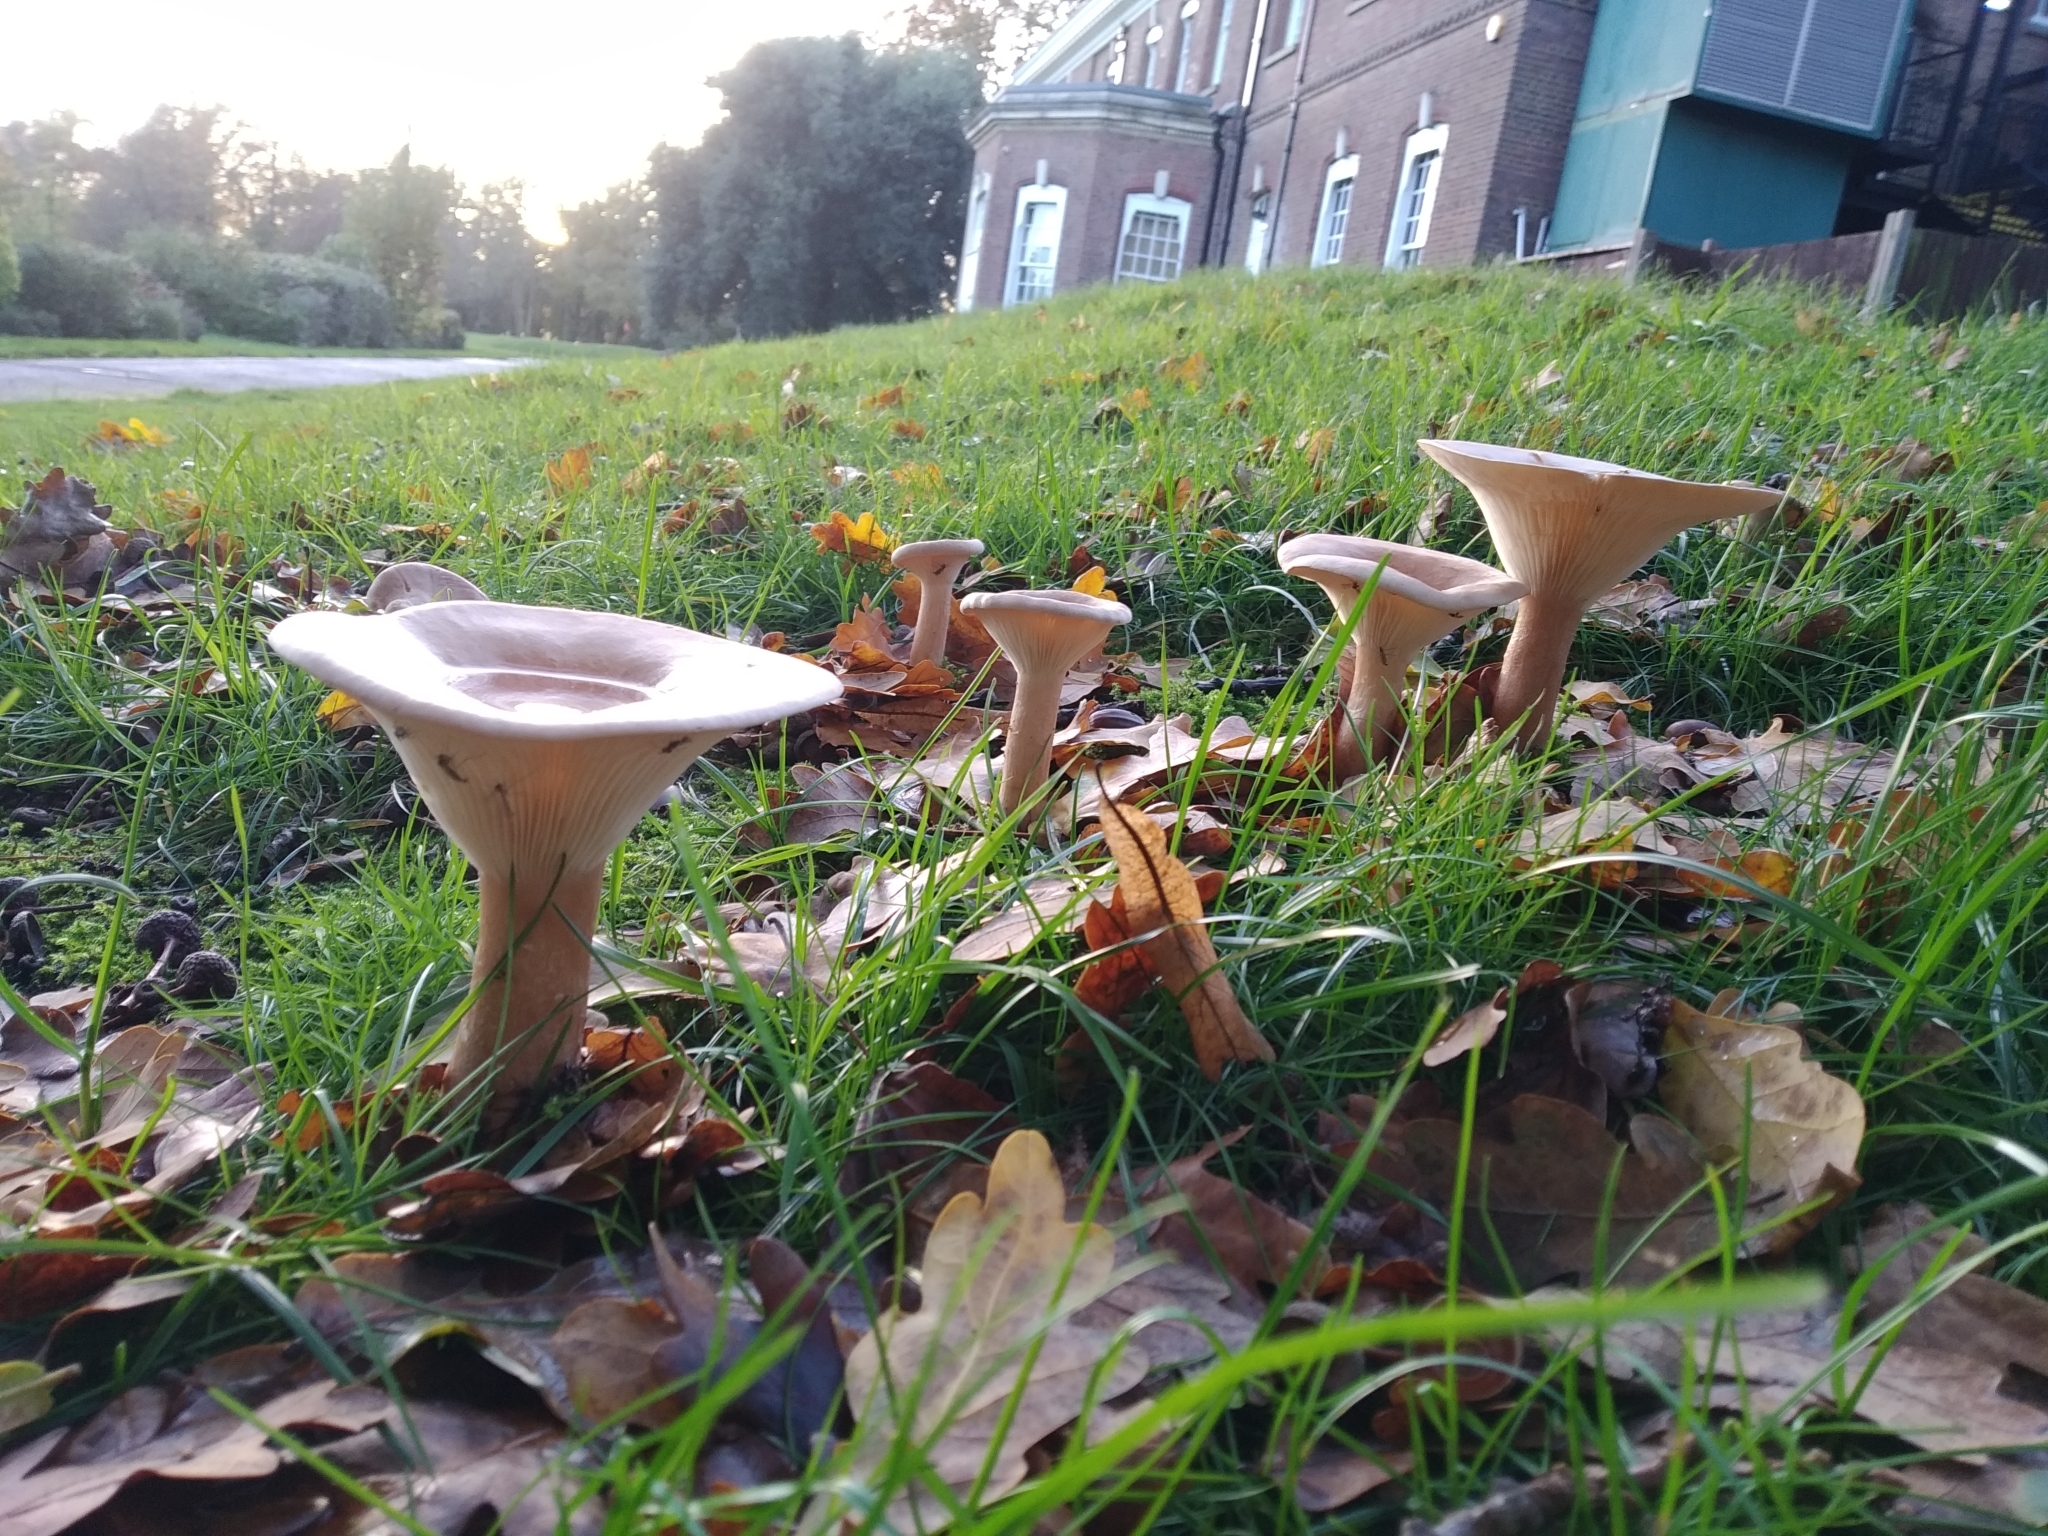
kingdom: Fungi
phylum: Basidiomycota
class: Agaricomycetes
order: Agaricales
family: Tricholomataceae
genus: Infundibulicybe
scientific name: Infundibulicybe geotropa
